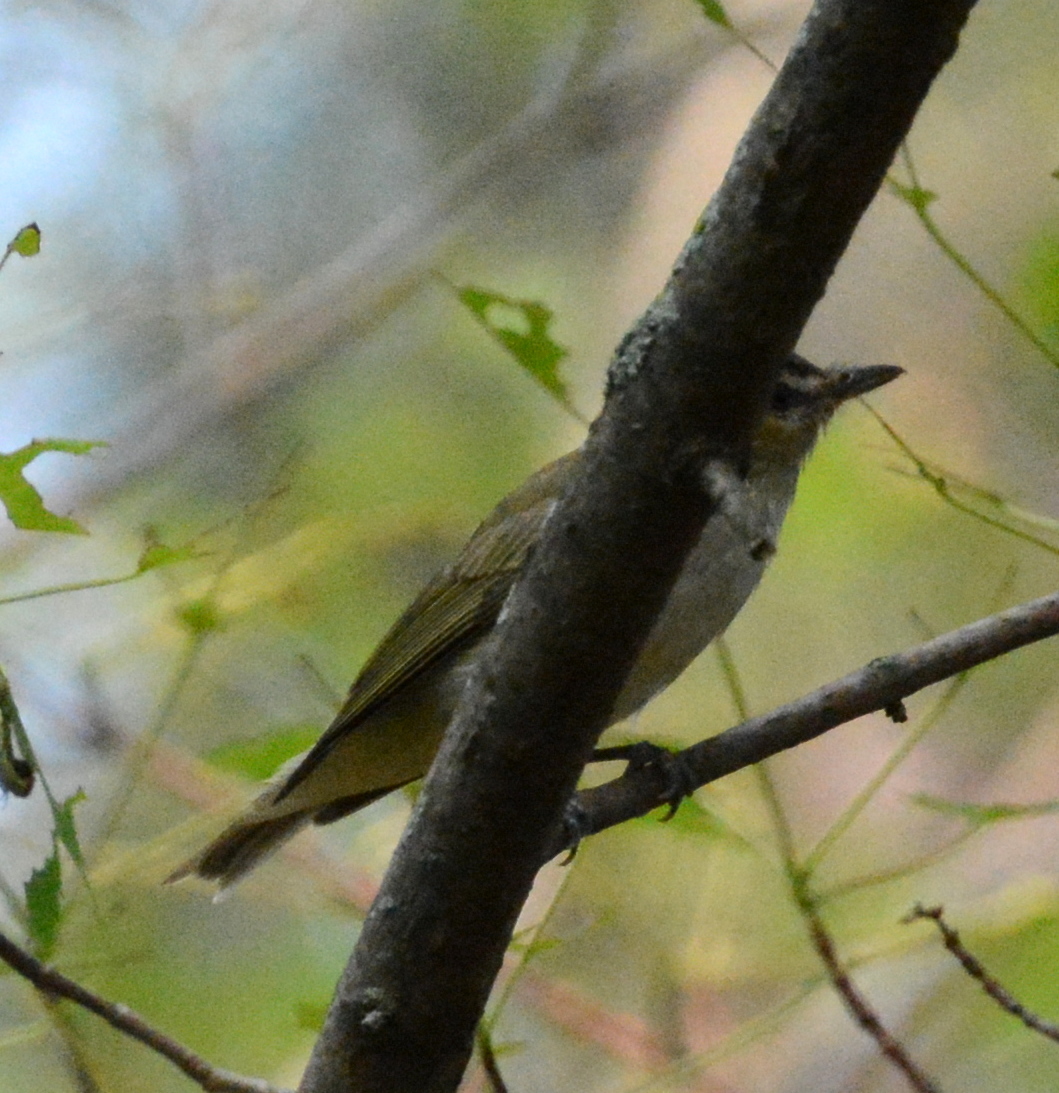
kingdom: Animalia
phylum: Chordata
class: Aves
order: Passeriformes
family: Vireonidae
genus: Vireo
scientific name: Vireo olivaceus
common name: Red-eyed vireo
